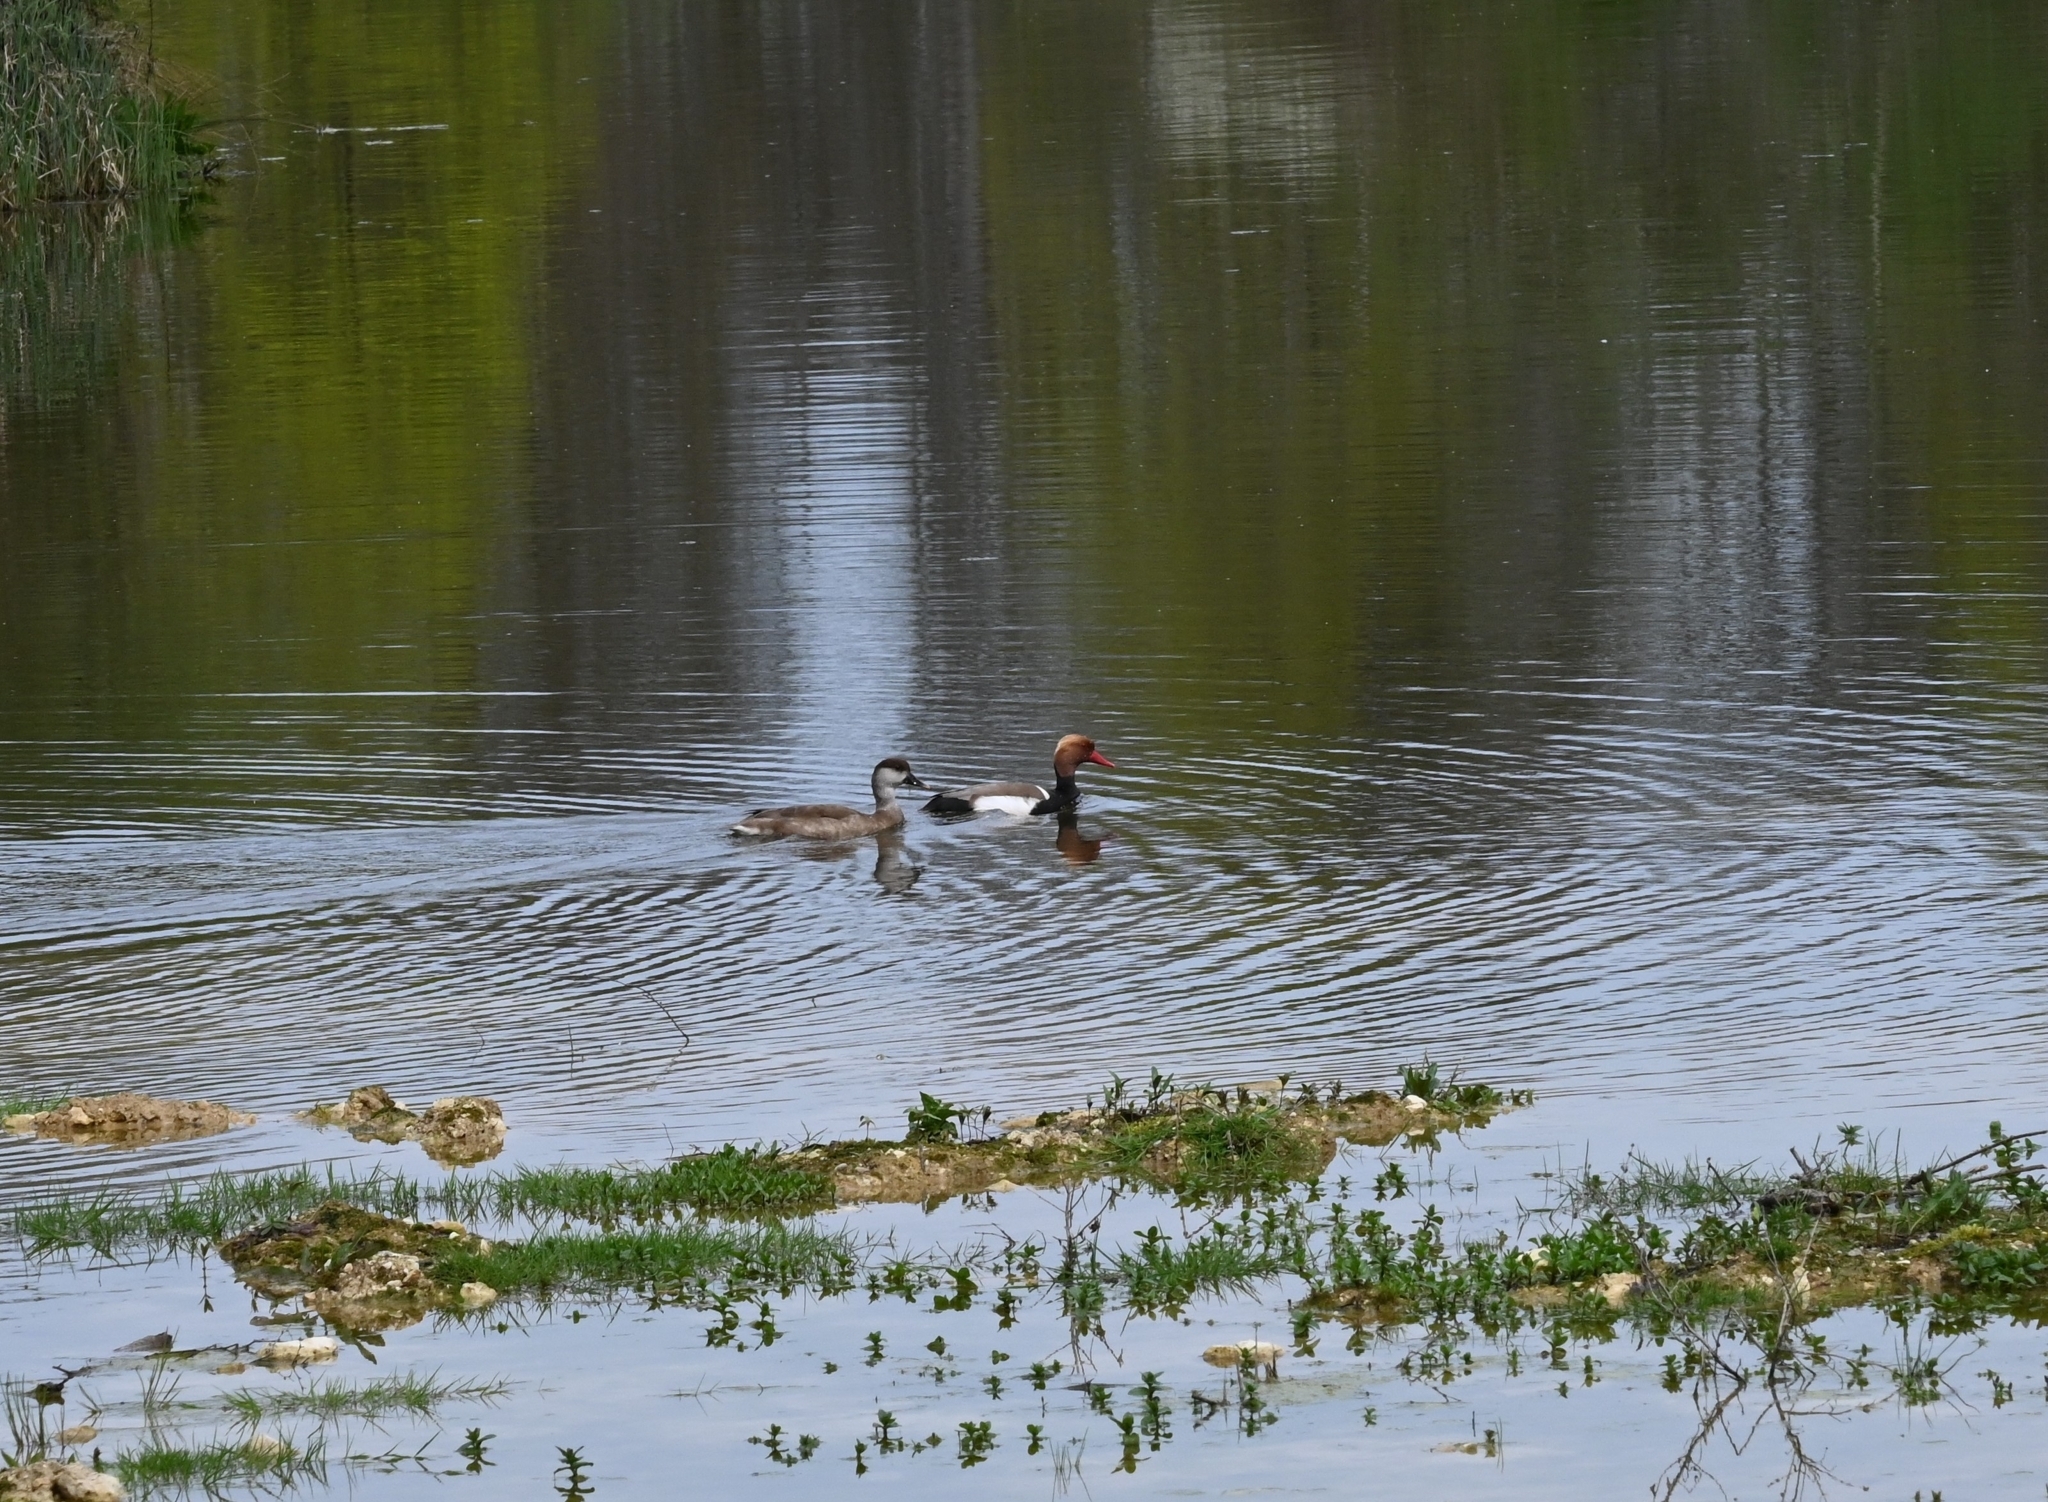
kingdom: Animalia
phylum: Chordata
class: Aves
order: Anseriformes
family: Anatidae
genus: Netta
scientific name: Netta rufina
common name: Red-crested pochard
